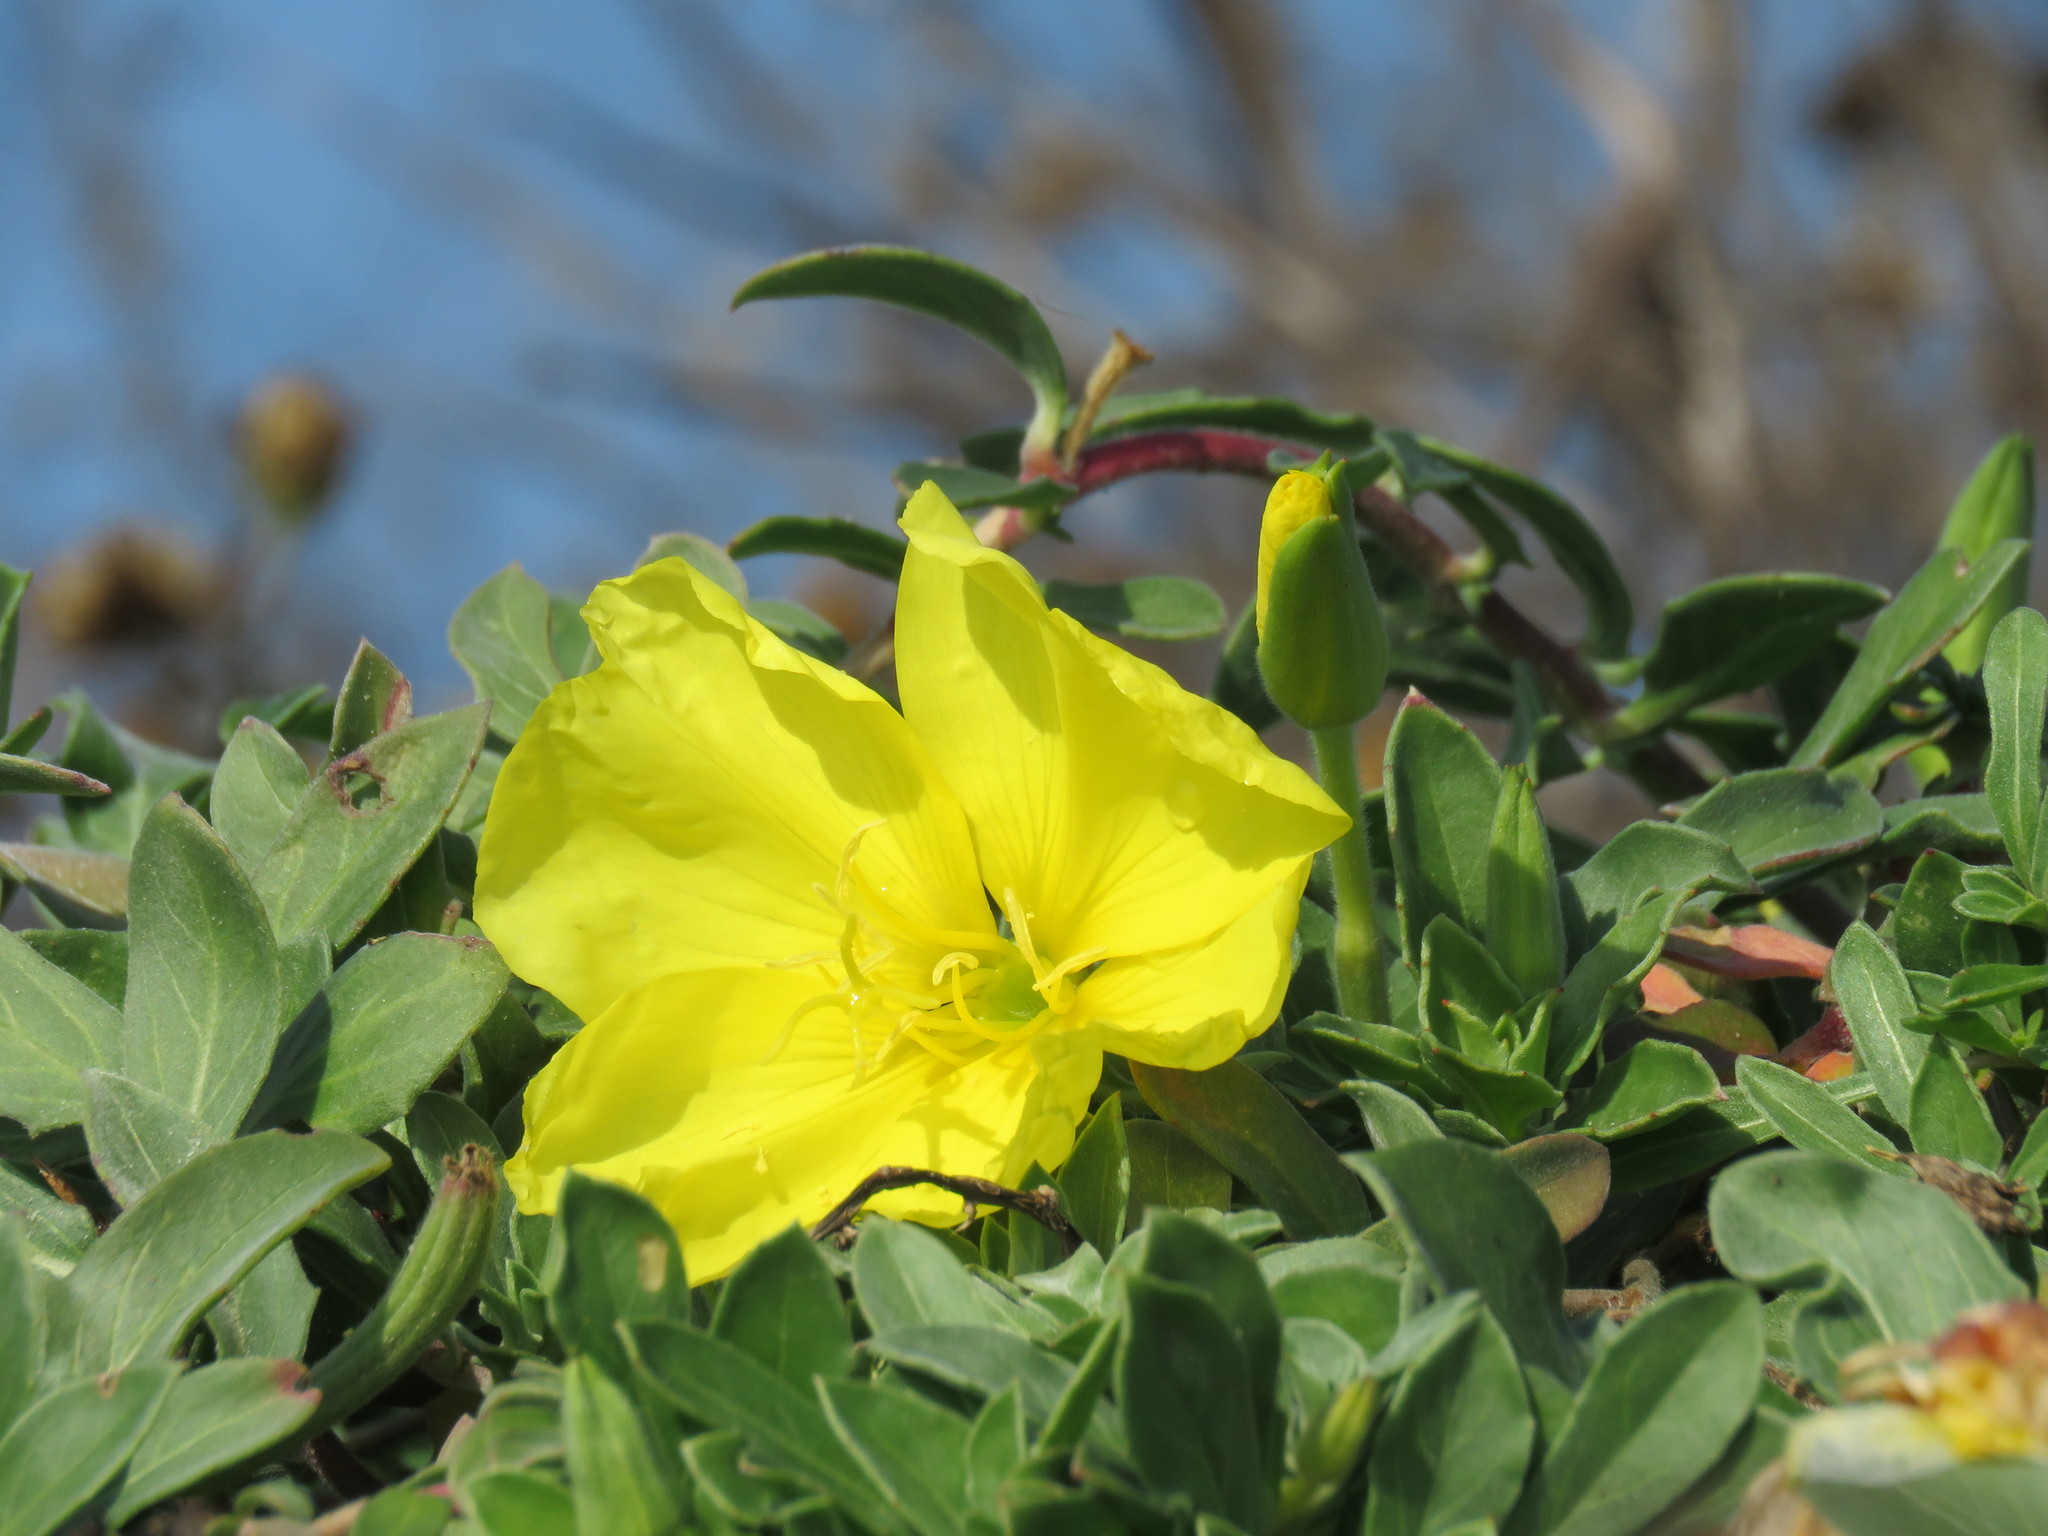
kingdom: Plantae
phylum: Tracheophyta
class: Magnoliopsida
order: Myrtales
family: Onagraceae
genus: Oenothera
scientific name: Oenothera drummondii
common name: Beach evening-primrose
